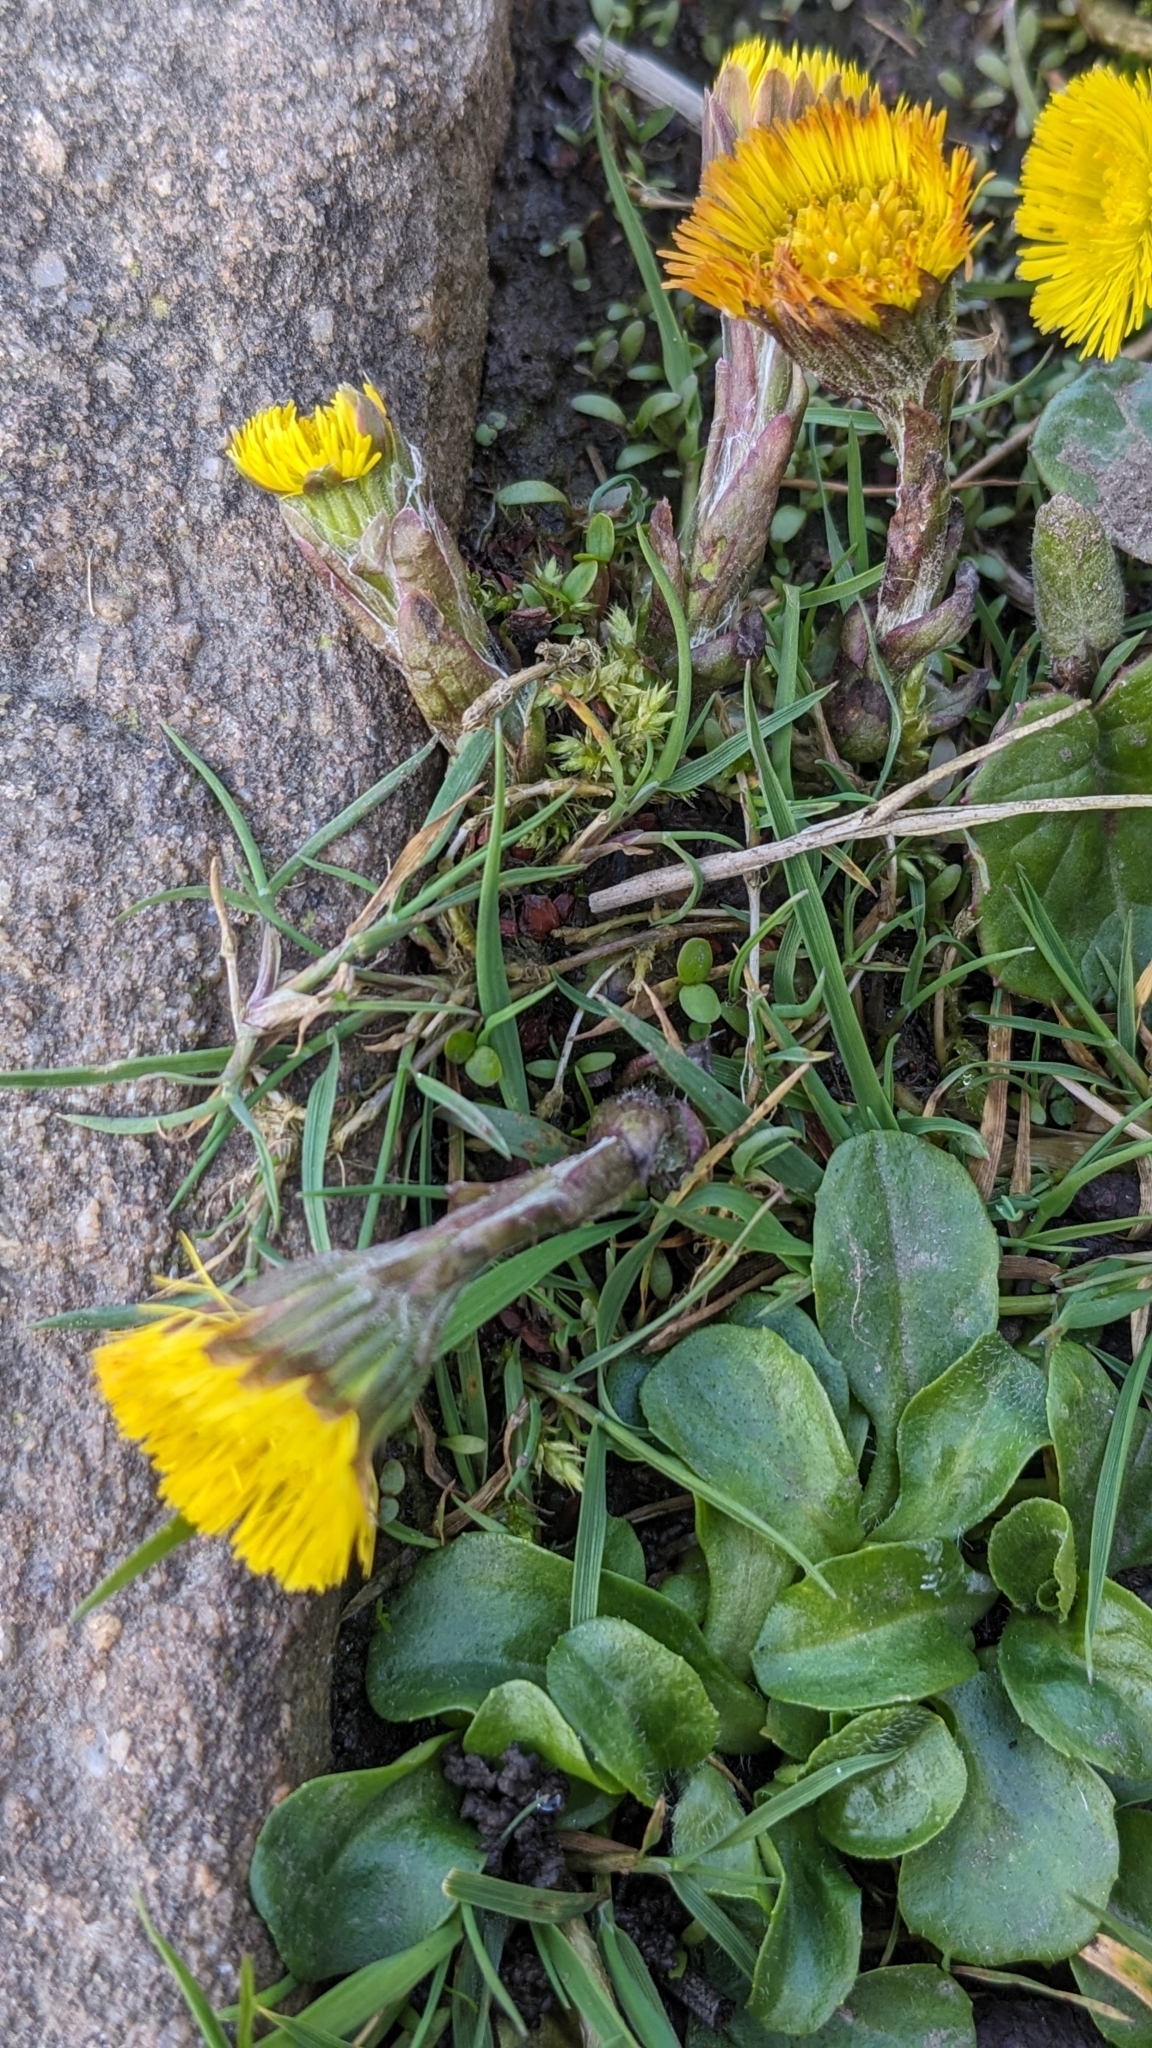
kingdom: Plantae
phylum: Tracheophyta
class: Magnoliopsida
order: Asterales
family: Asteraceae
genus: Tussilago
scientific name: Tussilago farfara
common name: Coltsfoot
